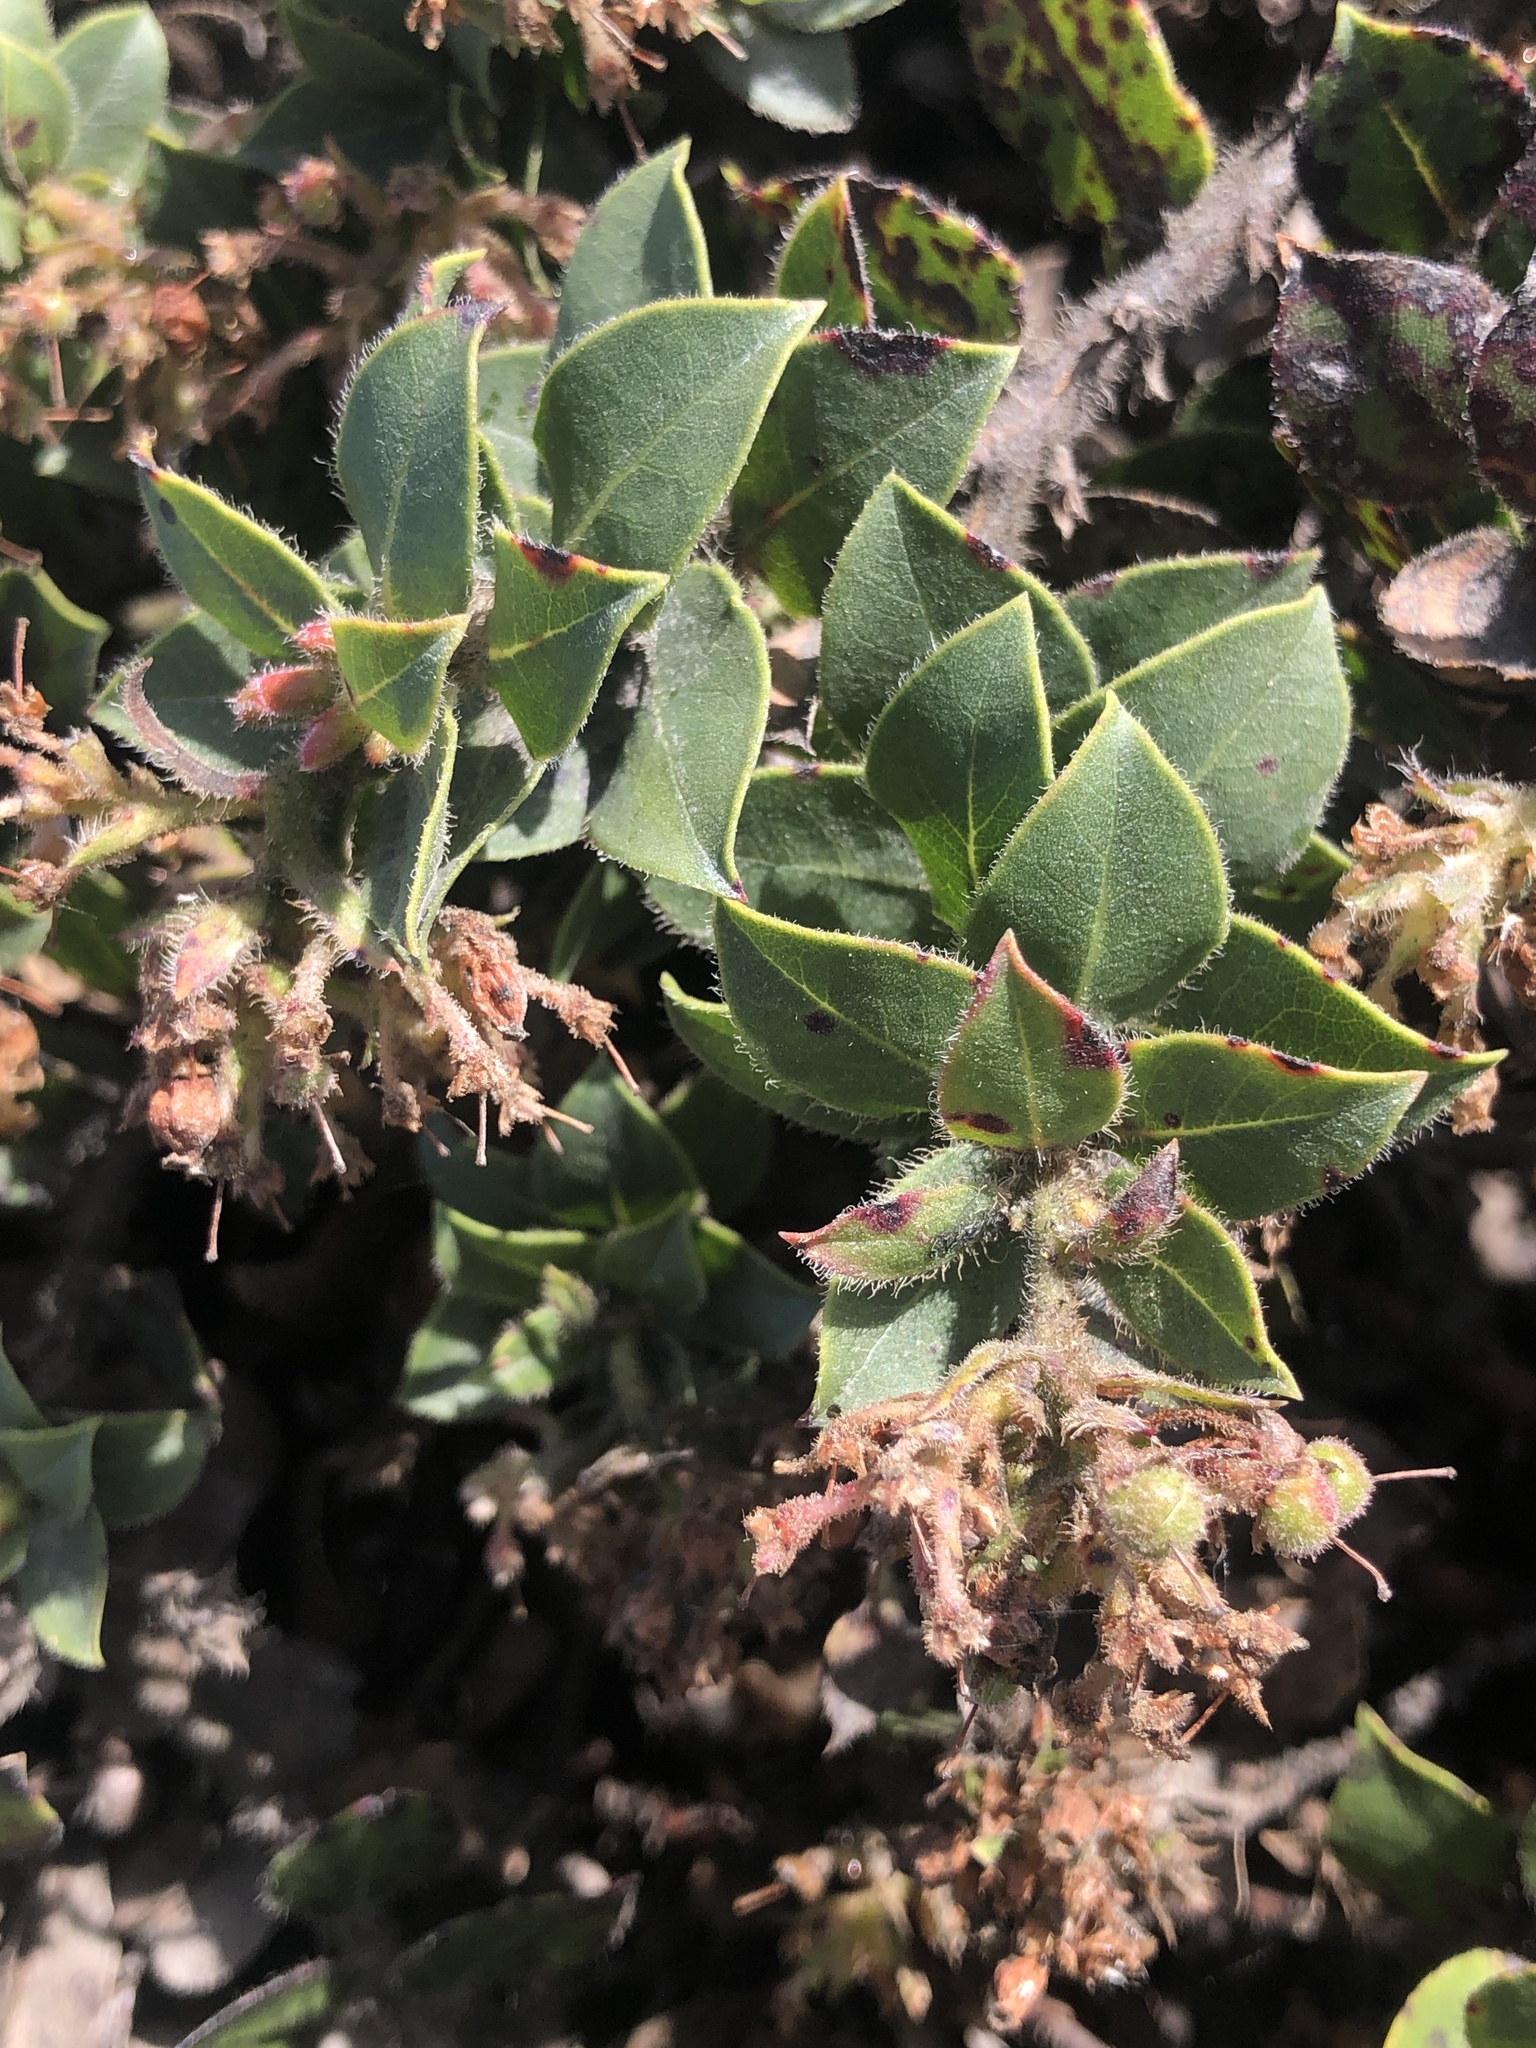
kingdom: Plantae
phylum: Tracheophyta
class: Magnoliopsida
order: Ericales
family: Ericaceae
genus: Arctostaphylos
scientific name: Arctostaphylos imbricata
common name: San bruno mountain manzanita
